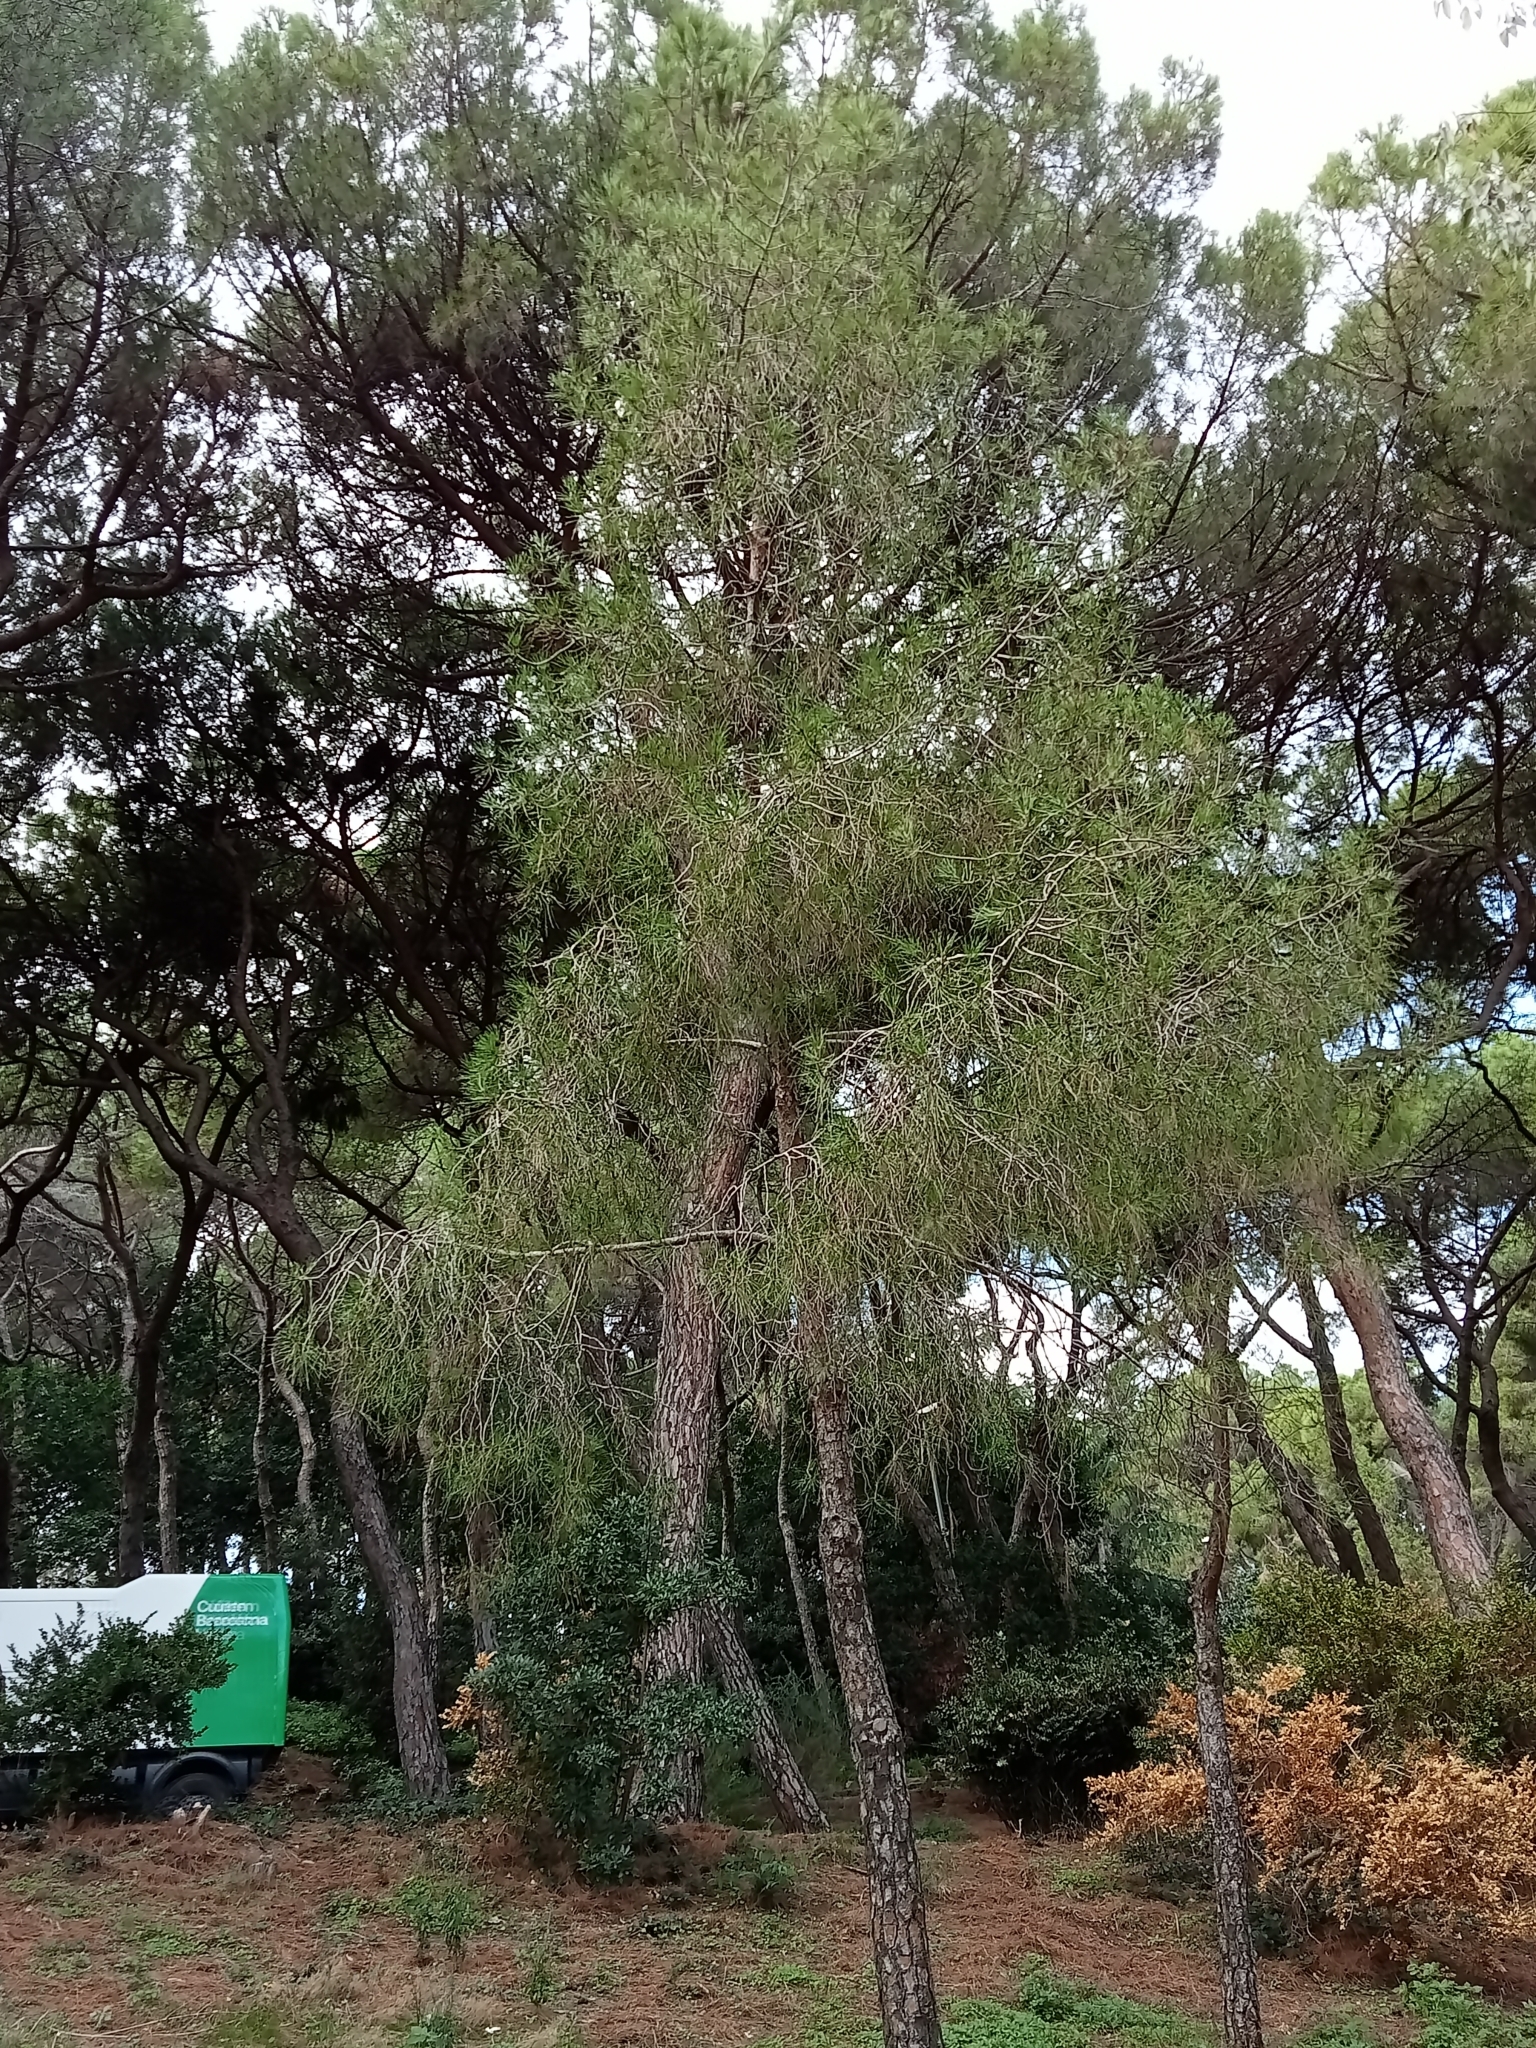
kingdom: Plantae
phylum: Tracheophyta
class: Pinopsida
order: Pinales
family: Pinaceae
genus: Pinus
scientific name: Pinus halepensis
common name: Aleppo pine
